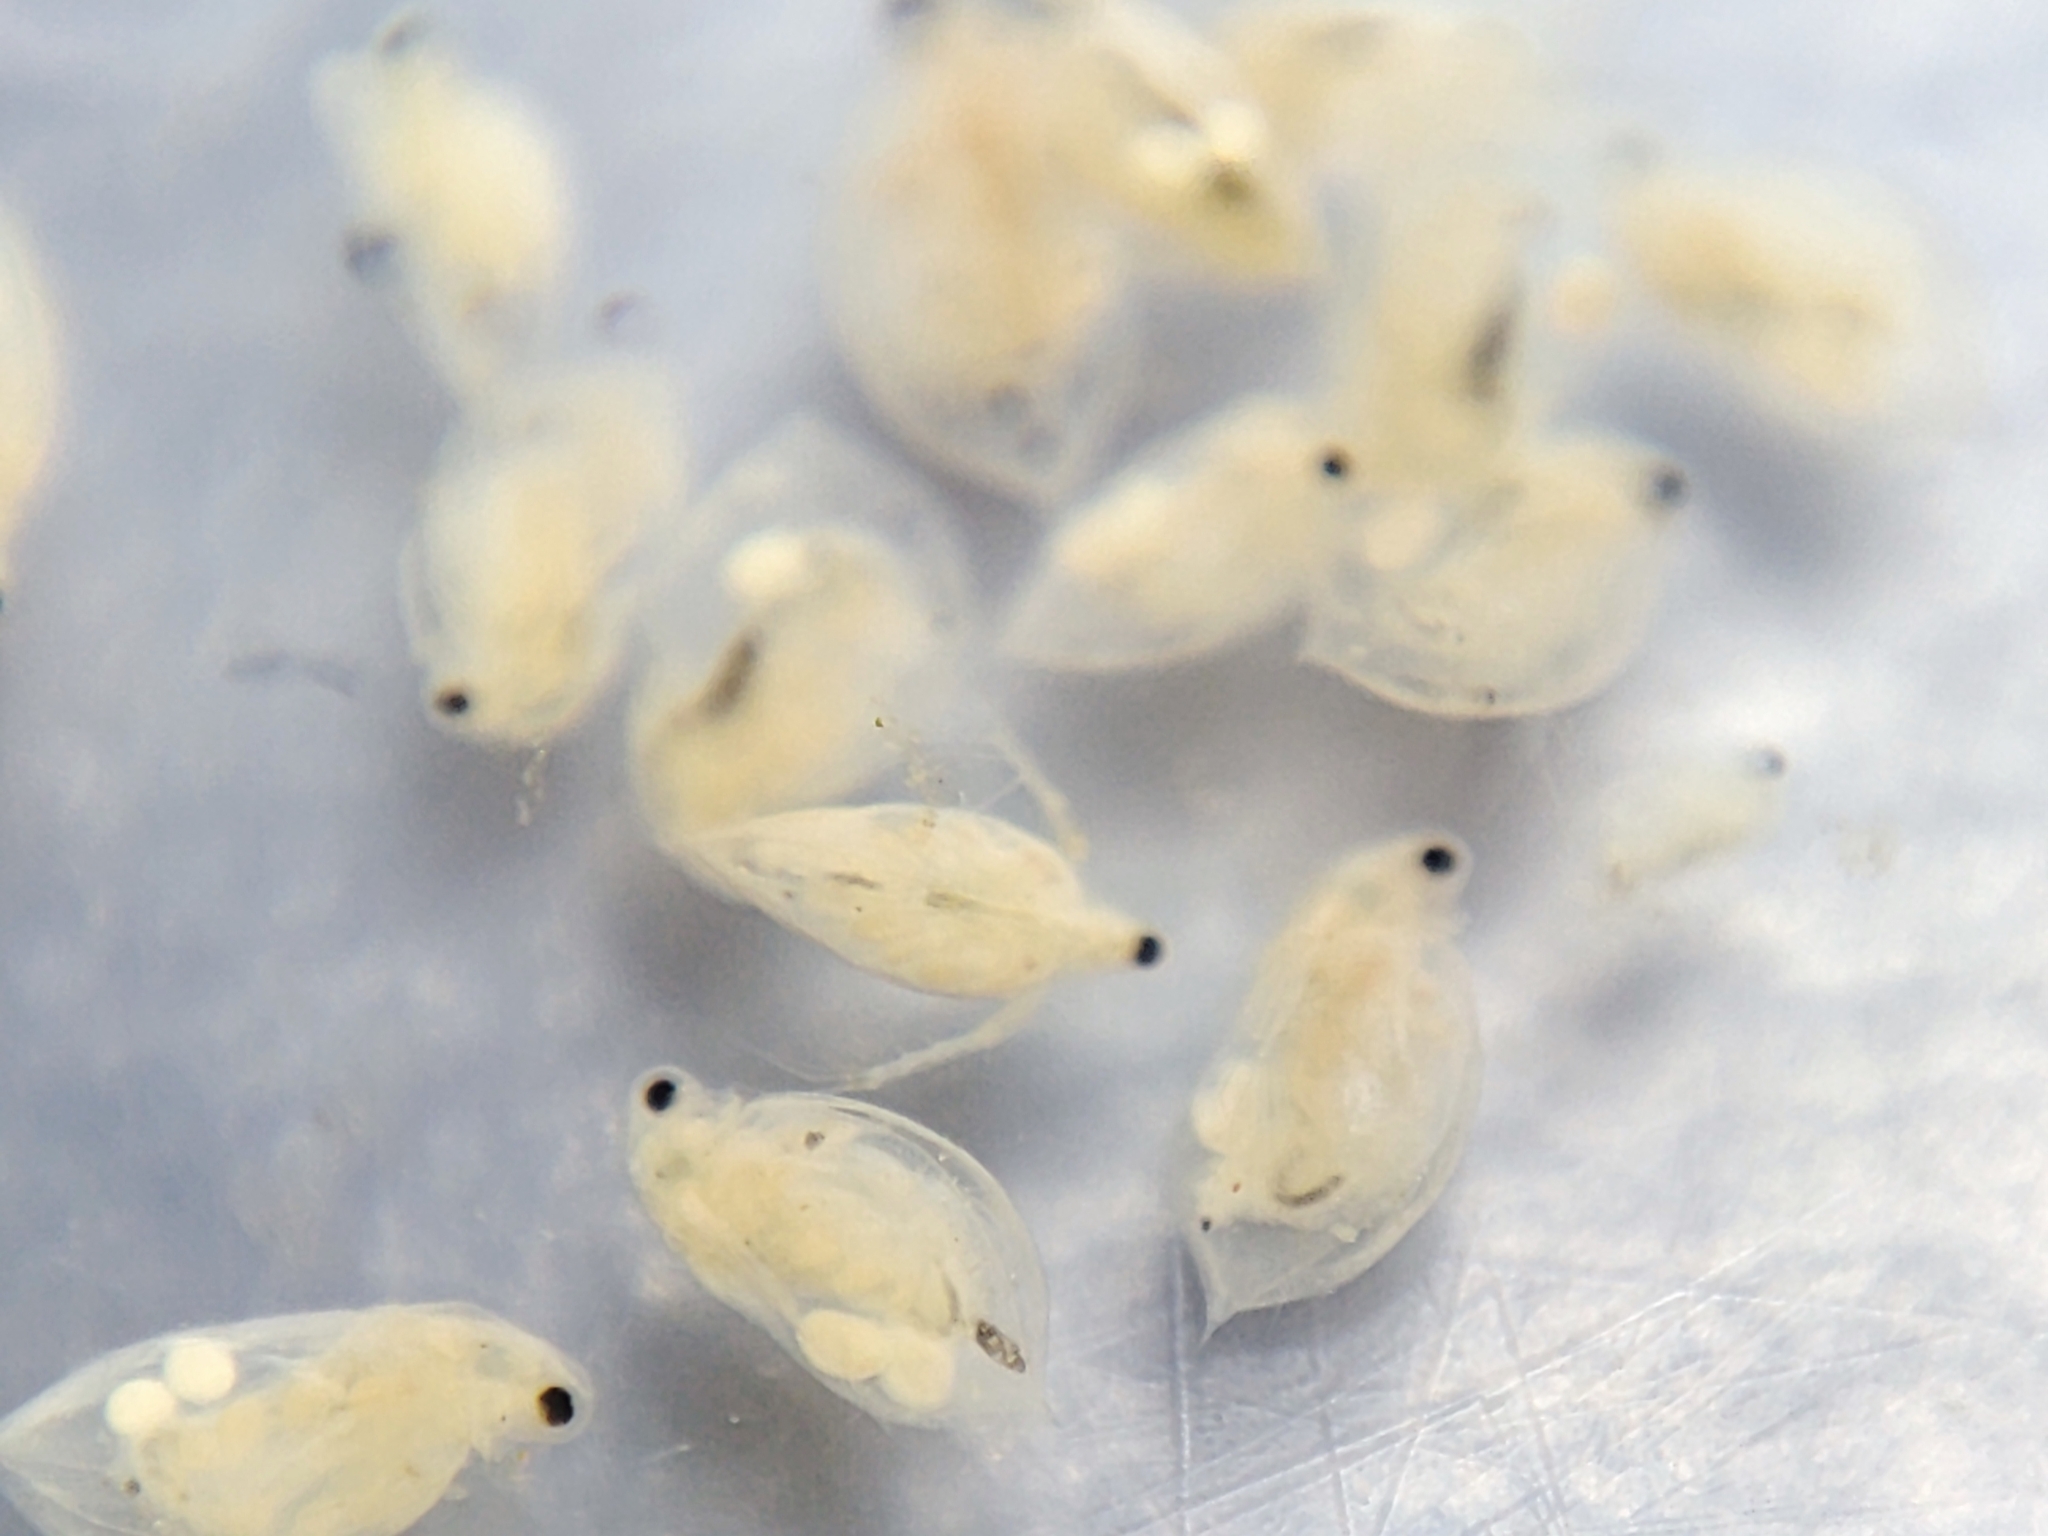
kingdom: Animalia
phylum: Arthropoda
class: Branchiopoda
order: Diplostraca
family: Daphniidae
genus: Daphnia
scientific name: Daphnia obtusa
